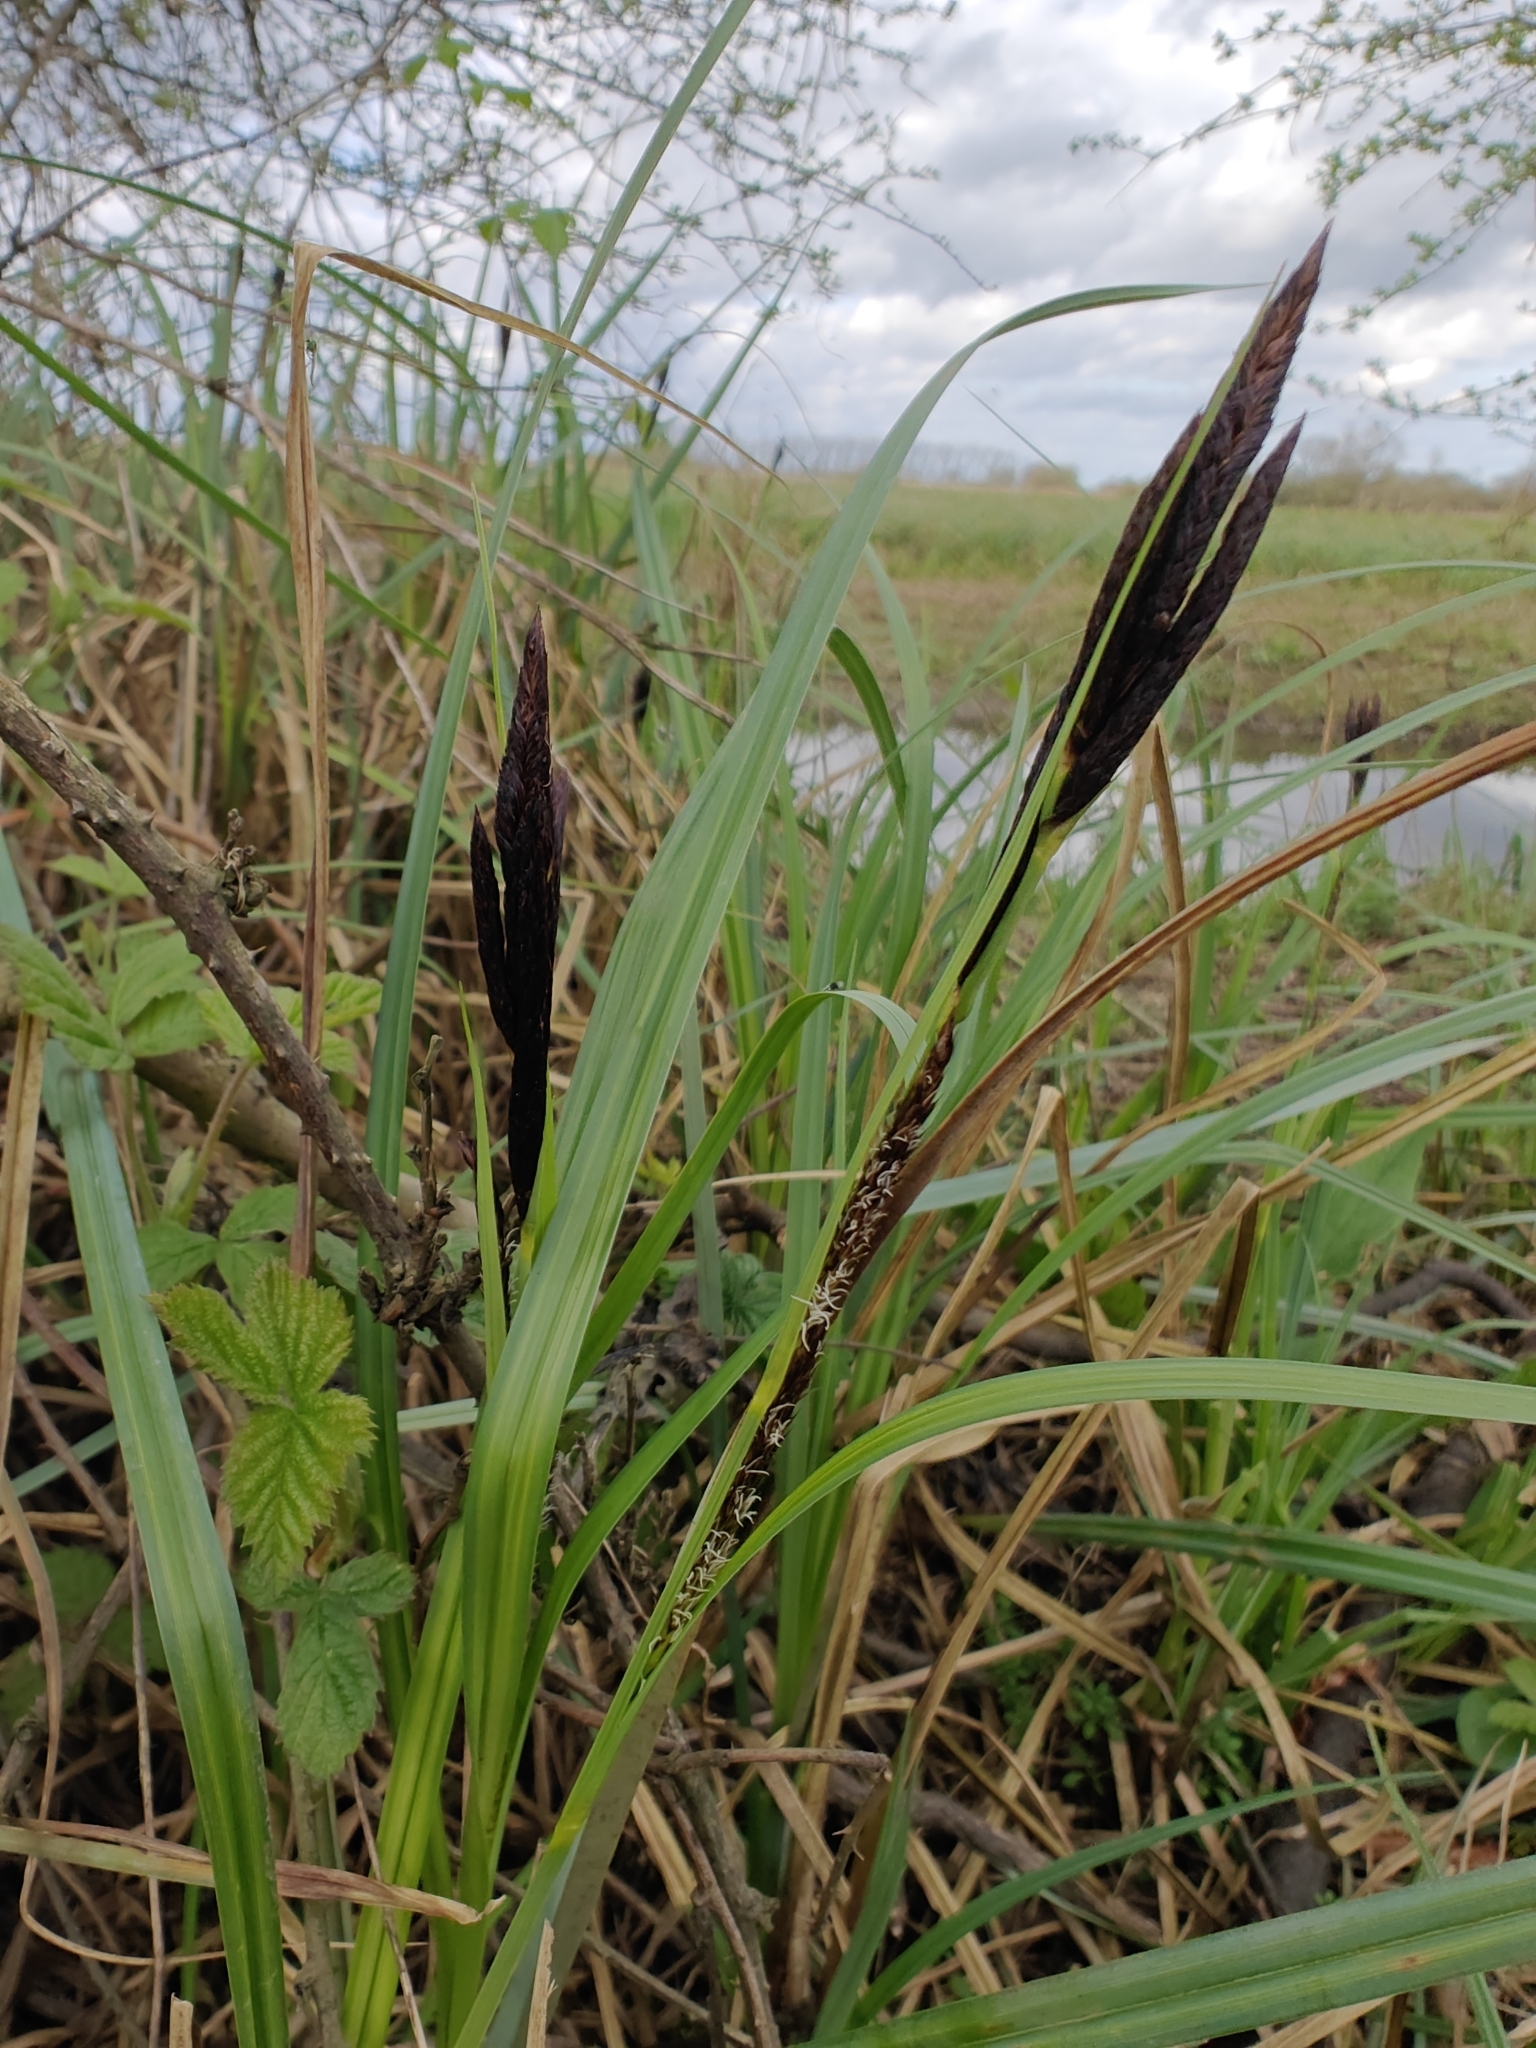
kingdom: Plantae
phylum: Tracheophyta
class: Liliopsida
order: Poales
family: Cyperaceae
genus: Carex
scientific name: Carex riparia
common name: Greater pond-sedge
